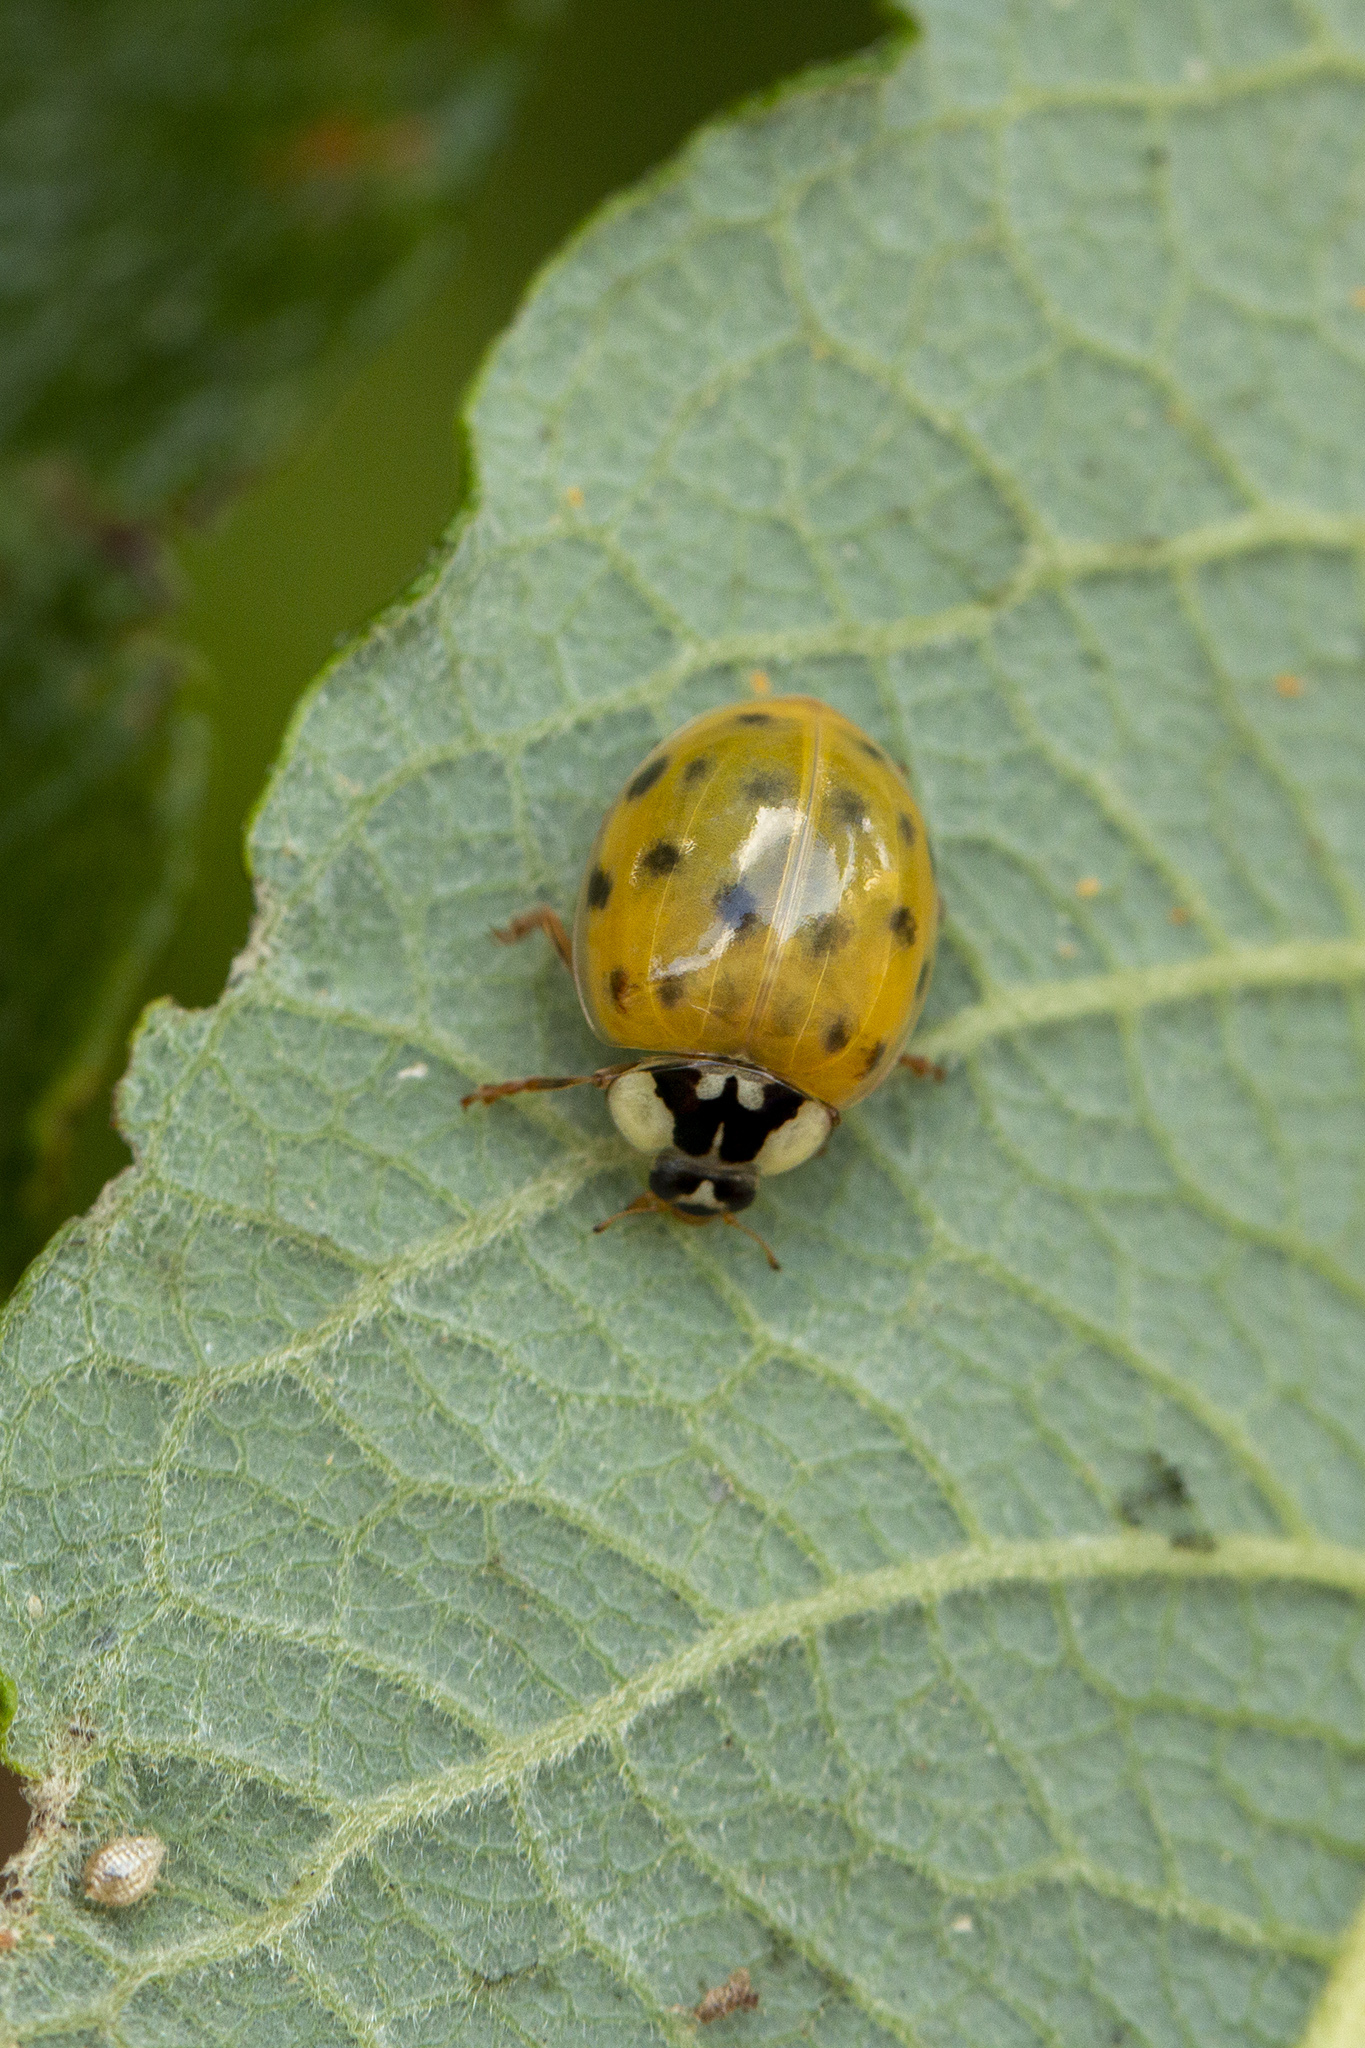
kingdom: Animalia
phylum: Arthropoda
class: Insecta
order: Coleoptera
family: Coccinellidae
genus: Harmonia
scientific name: Harmonia axyridis
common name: Harlequin ladybird
